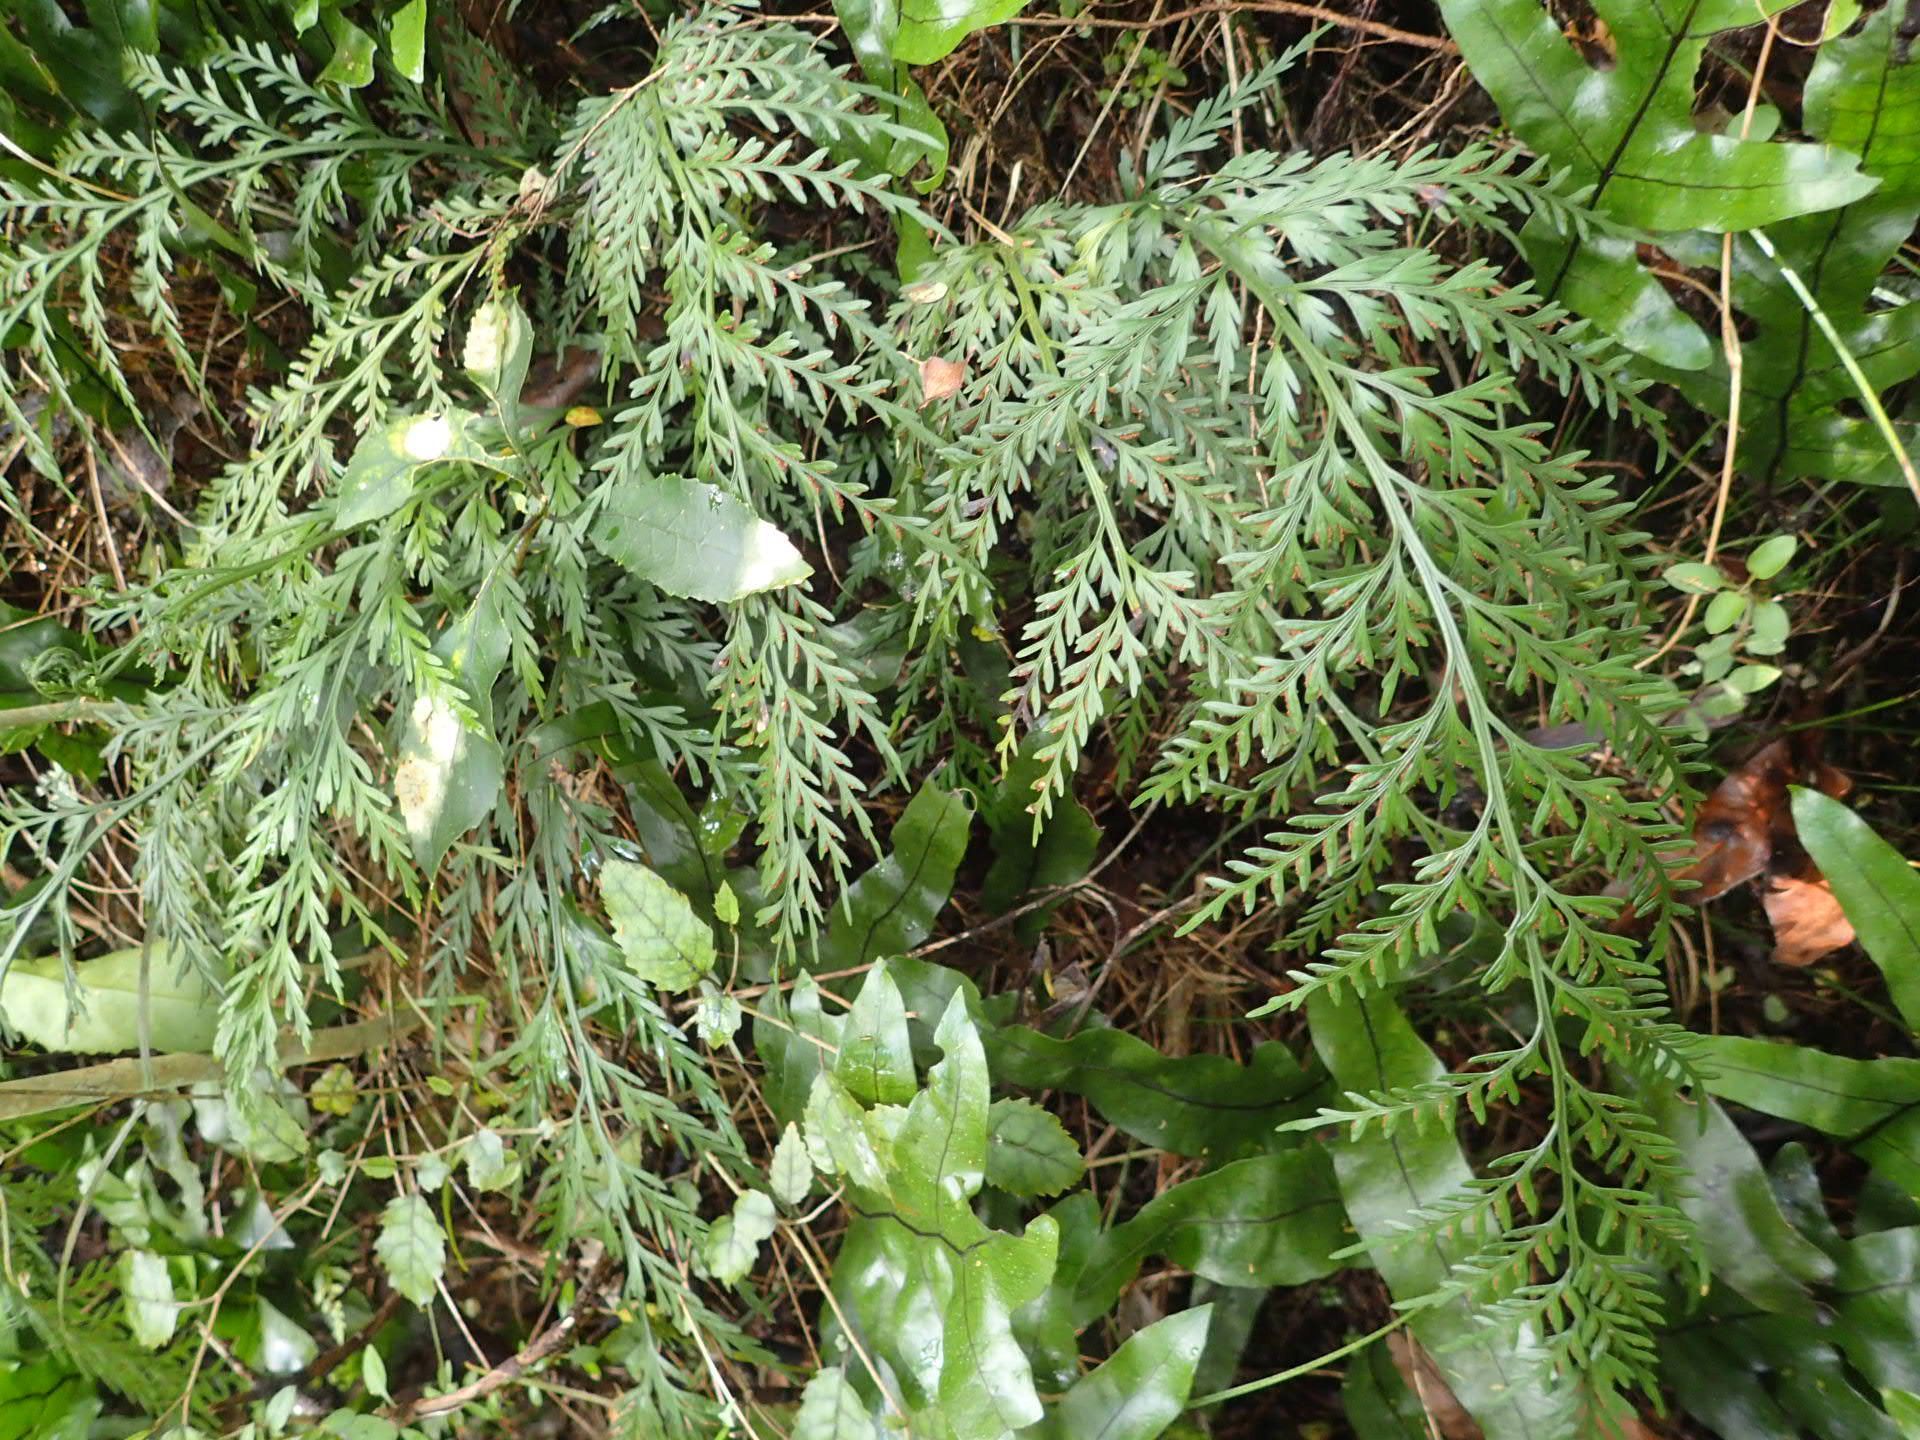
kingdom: Plantae
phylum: Tracheophyta
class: Polypodiopsida
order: Polypodiales
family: Aspleniaceae
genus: Asplenium
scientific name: Asplenium appendiculatum
